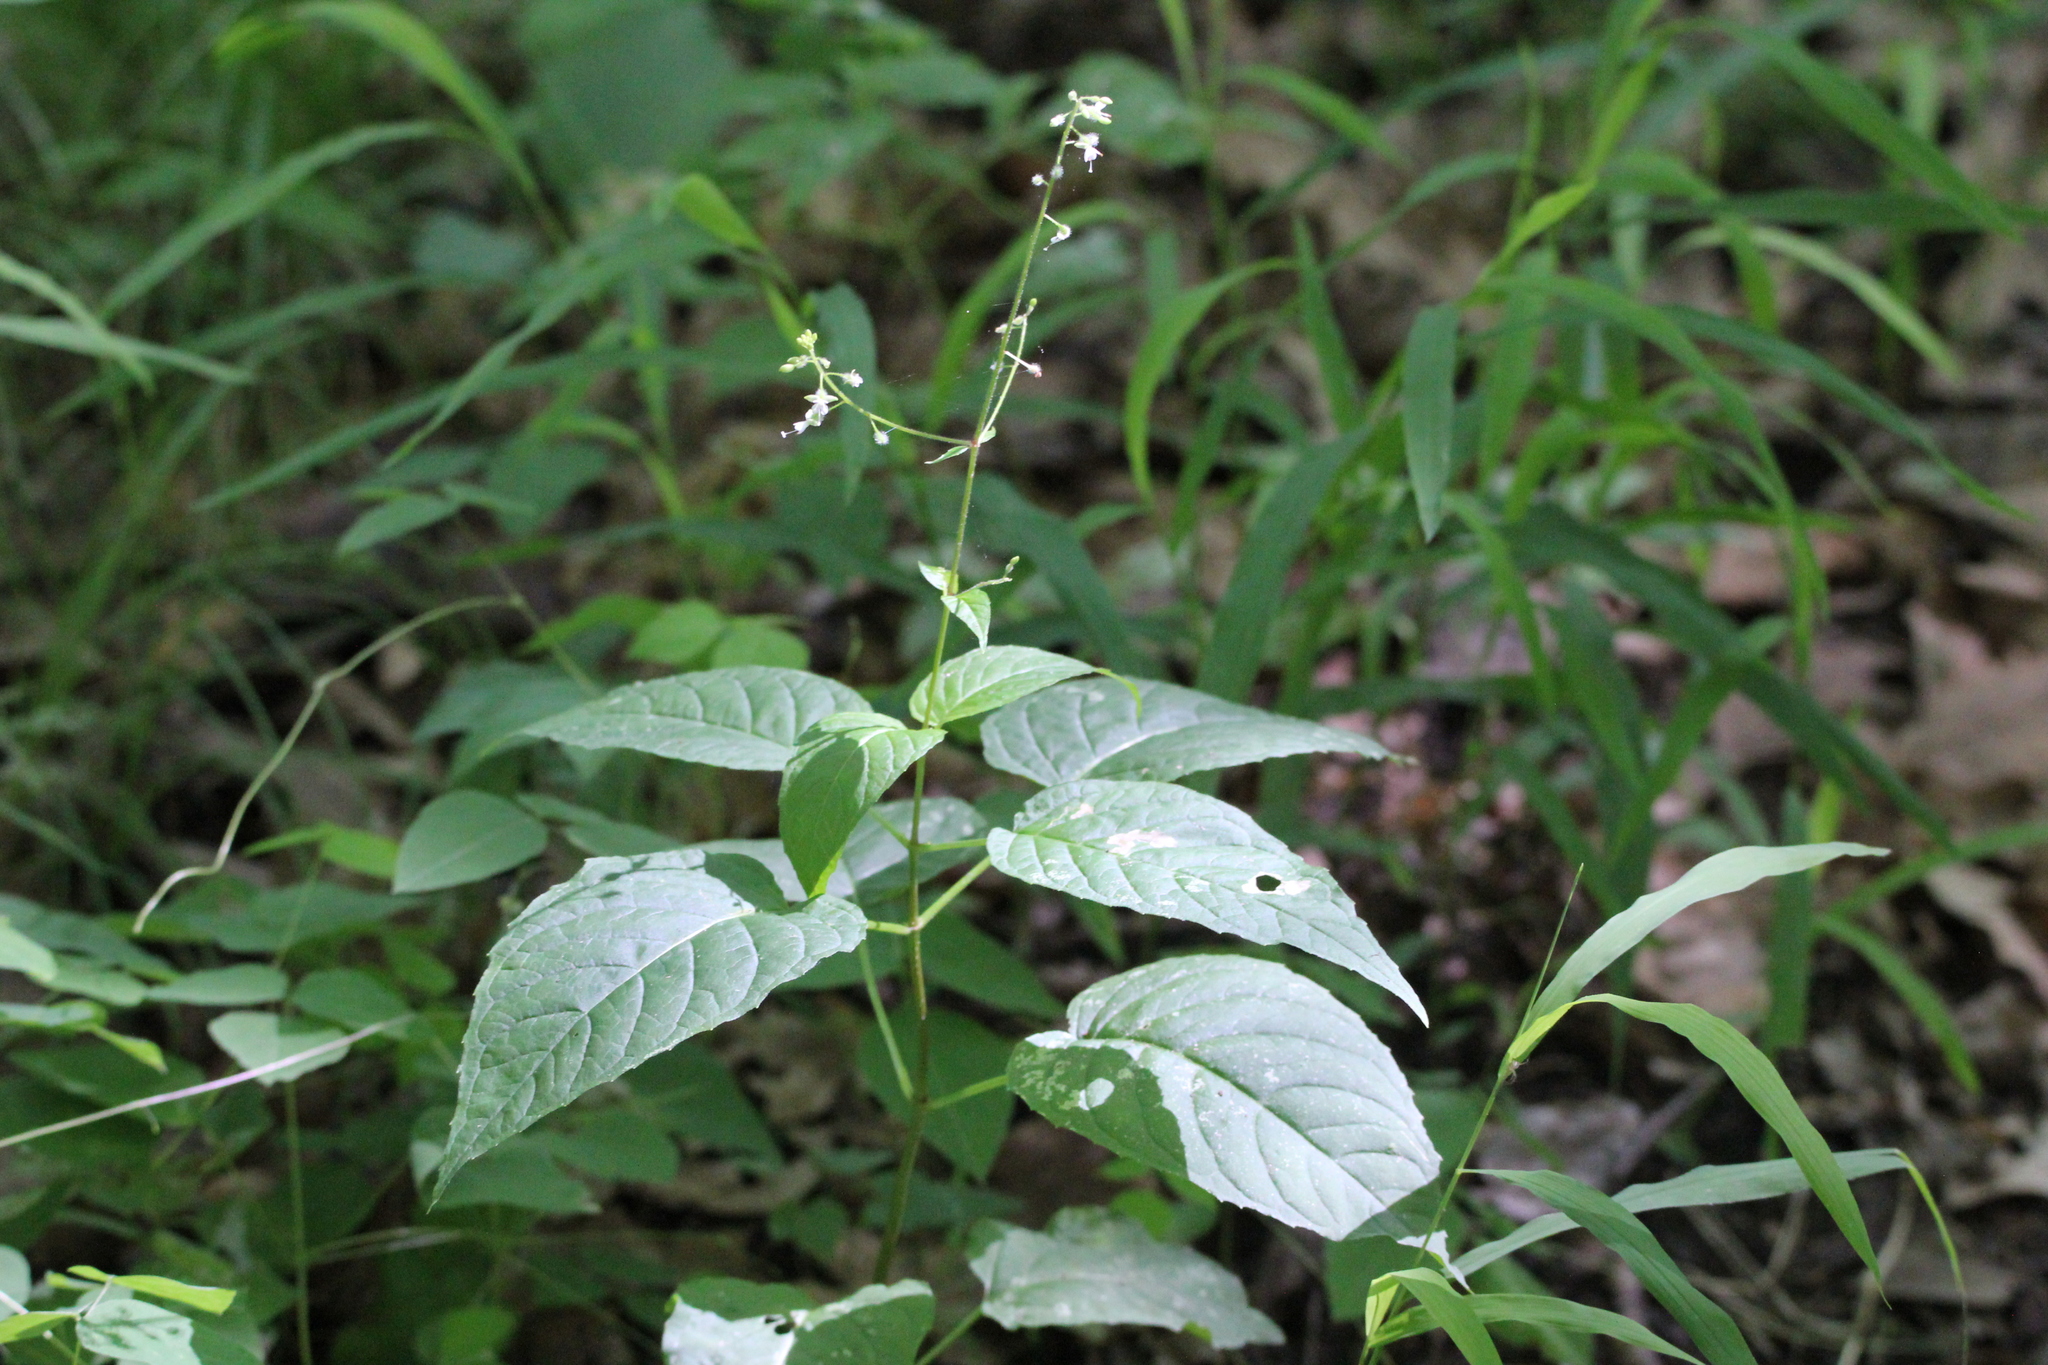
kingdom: Plantae
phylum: Tracheophyta
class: Magnoliopsida
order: Myrtales
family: Onagraceae
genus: Circaea
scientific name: Circaea canadensis
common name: Broad-leaved enchanter's nightshade
